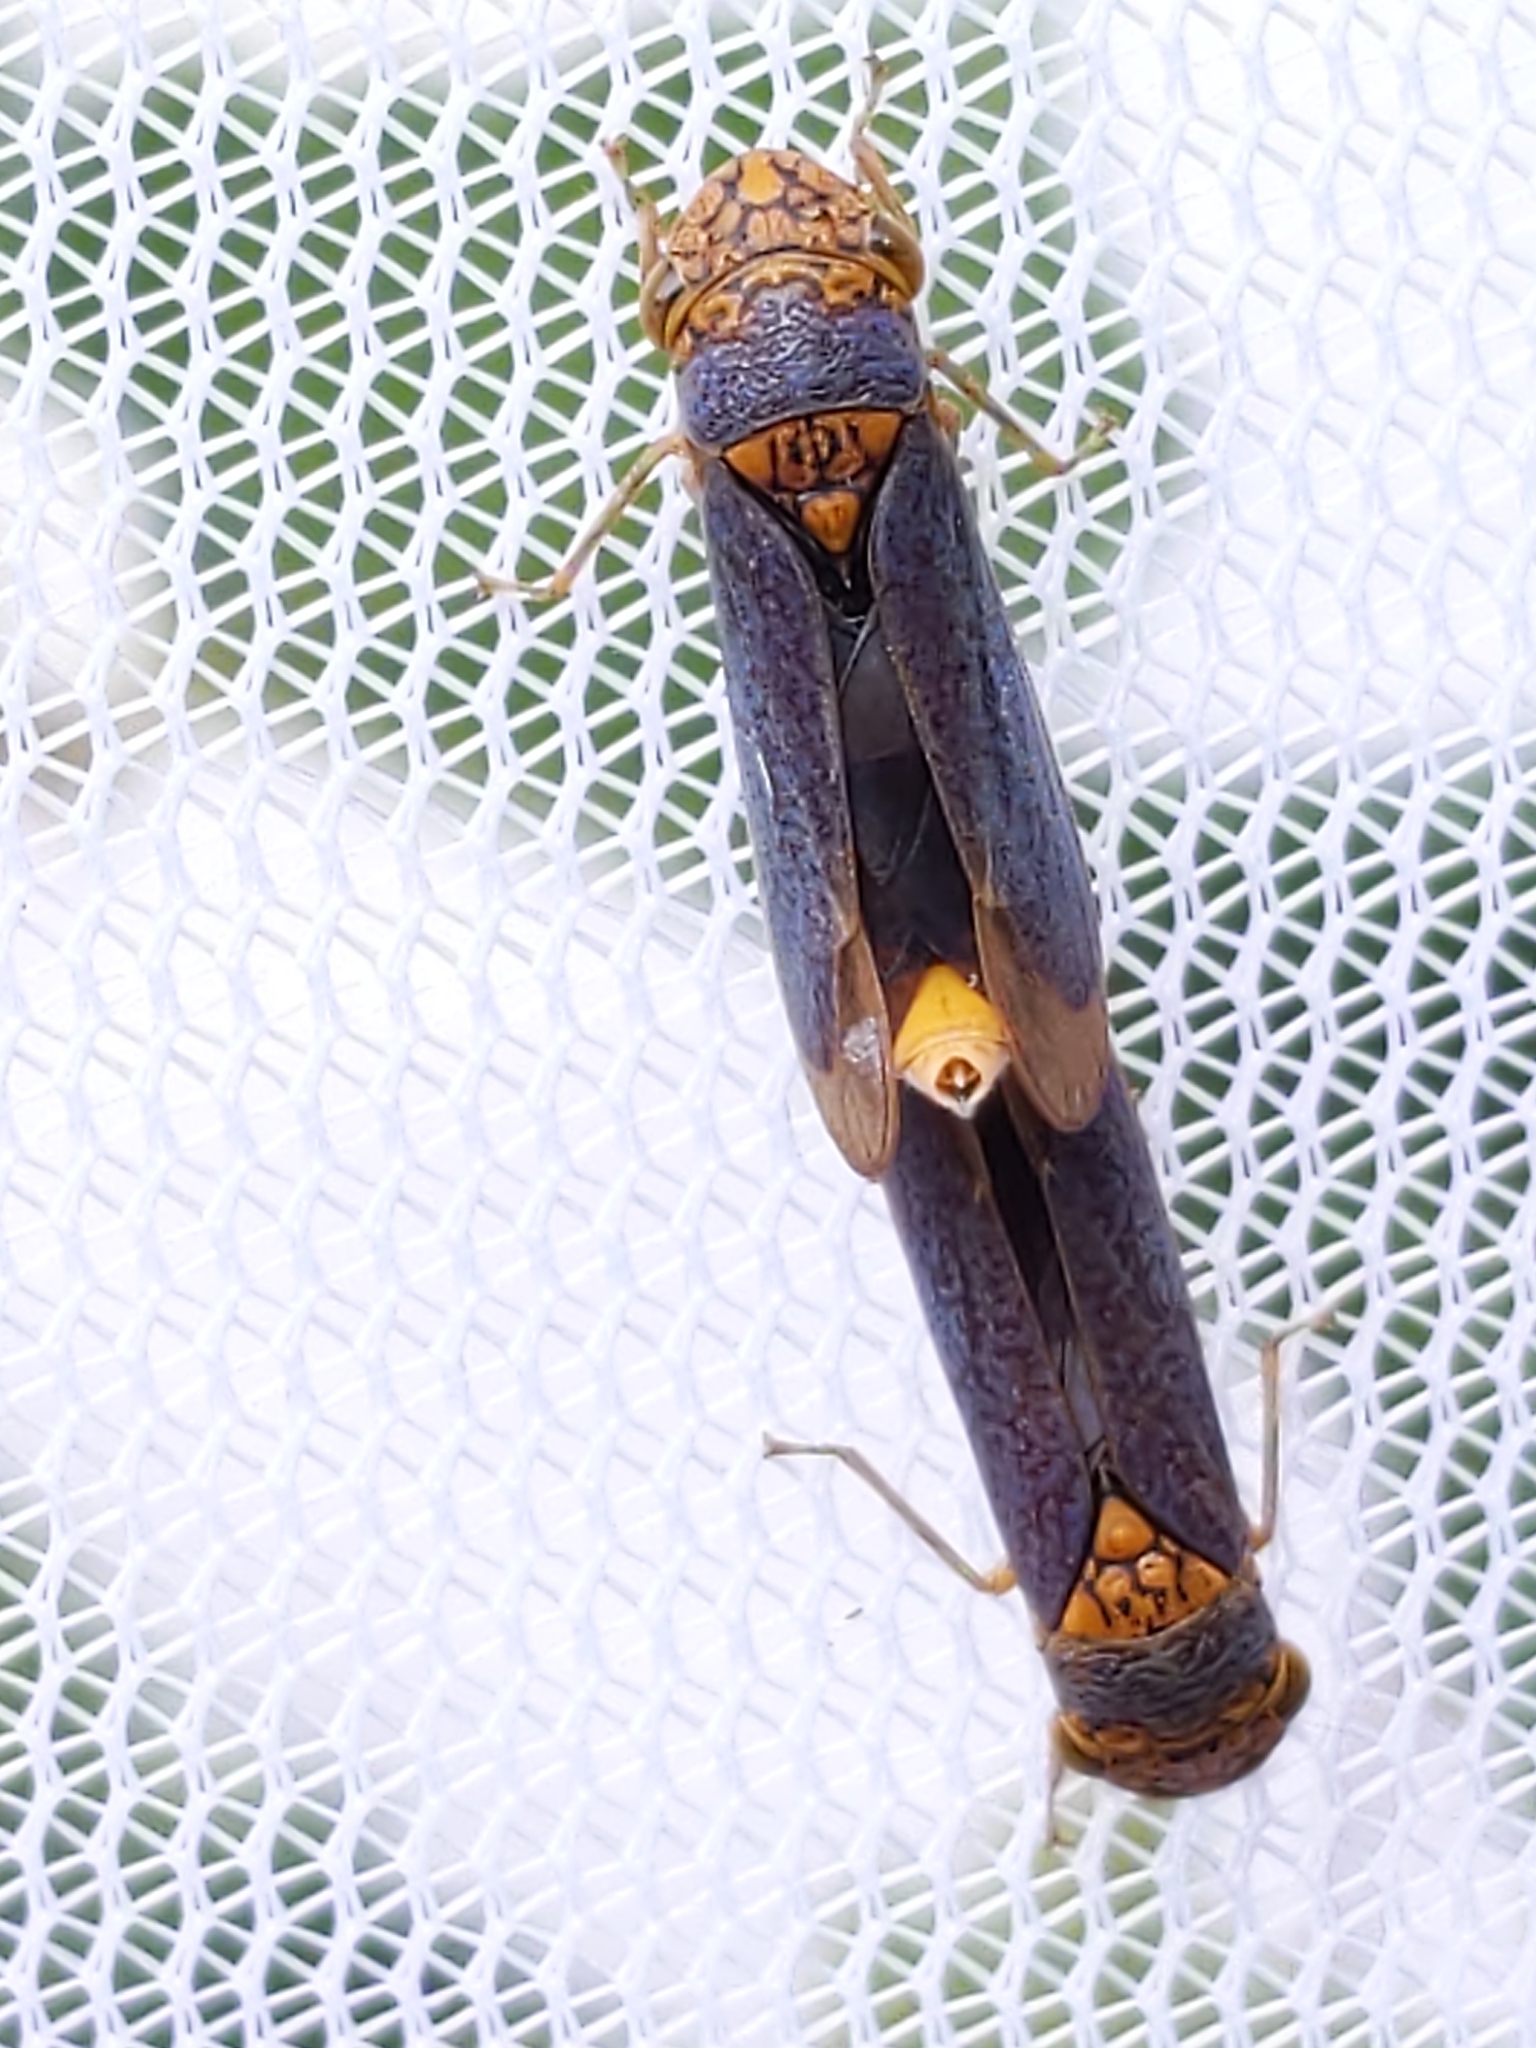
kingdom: Animalia
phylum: Arthropoda
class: Insecta
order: Hemiptera
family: Cicadellidae
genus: Oncometopia
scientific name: Oncometopia orbona
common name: Broad-headed sharpshooter
